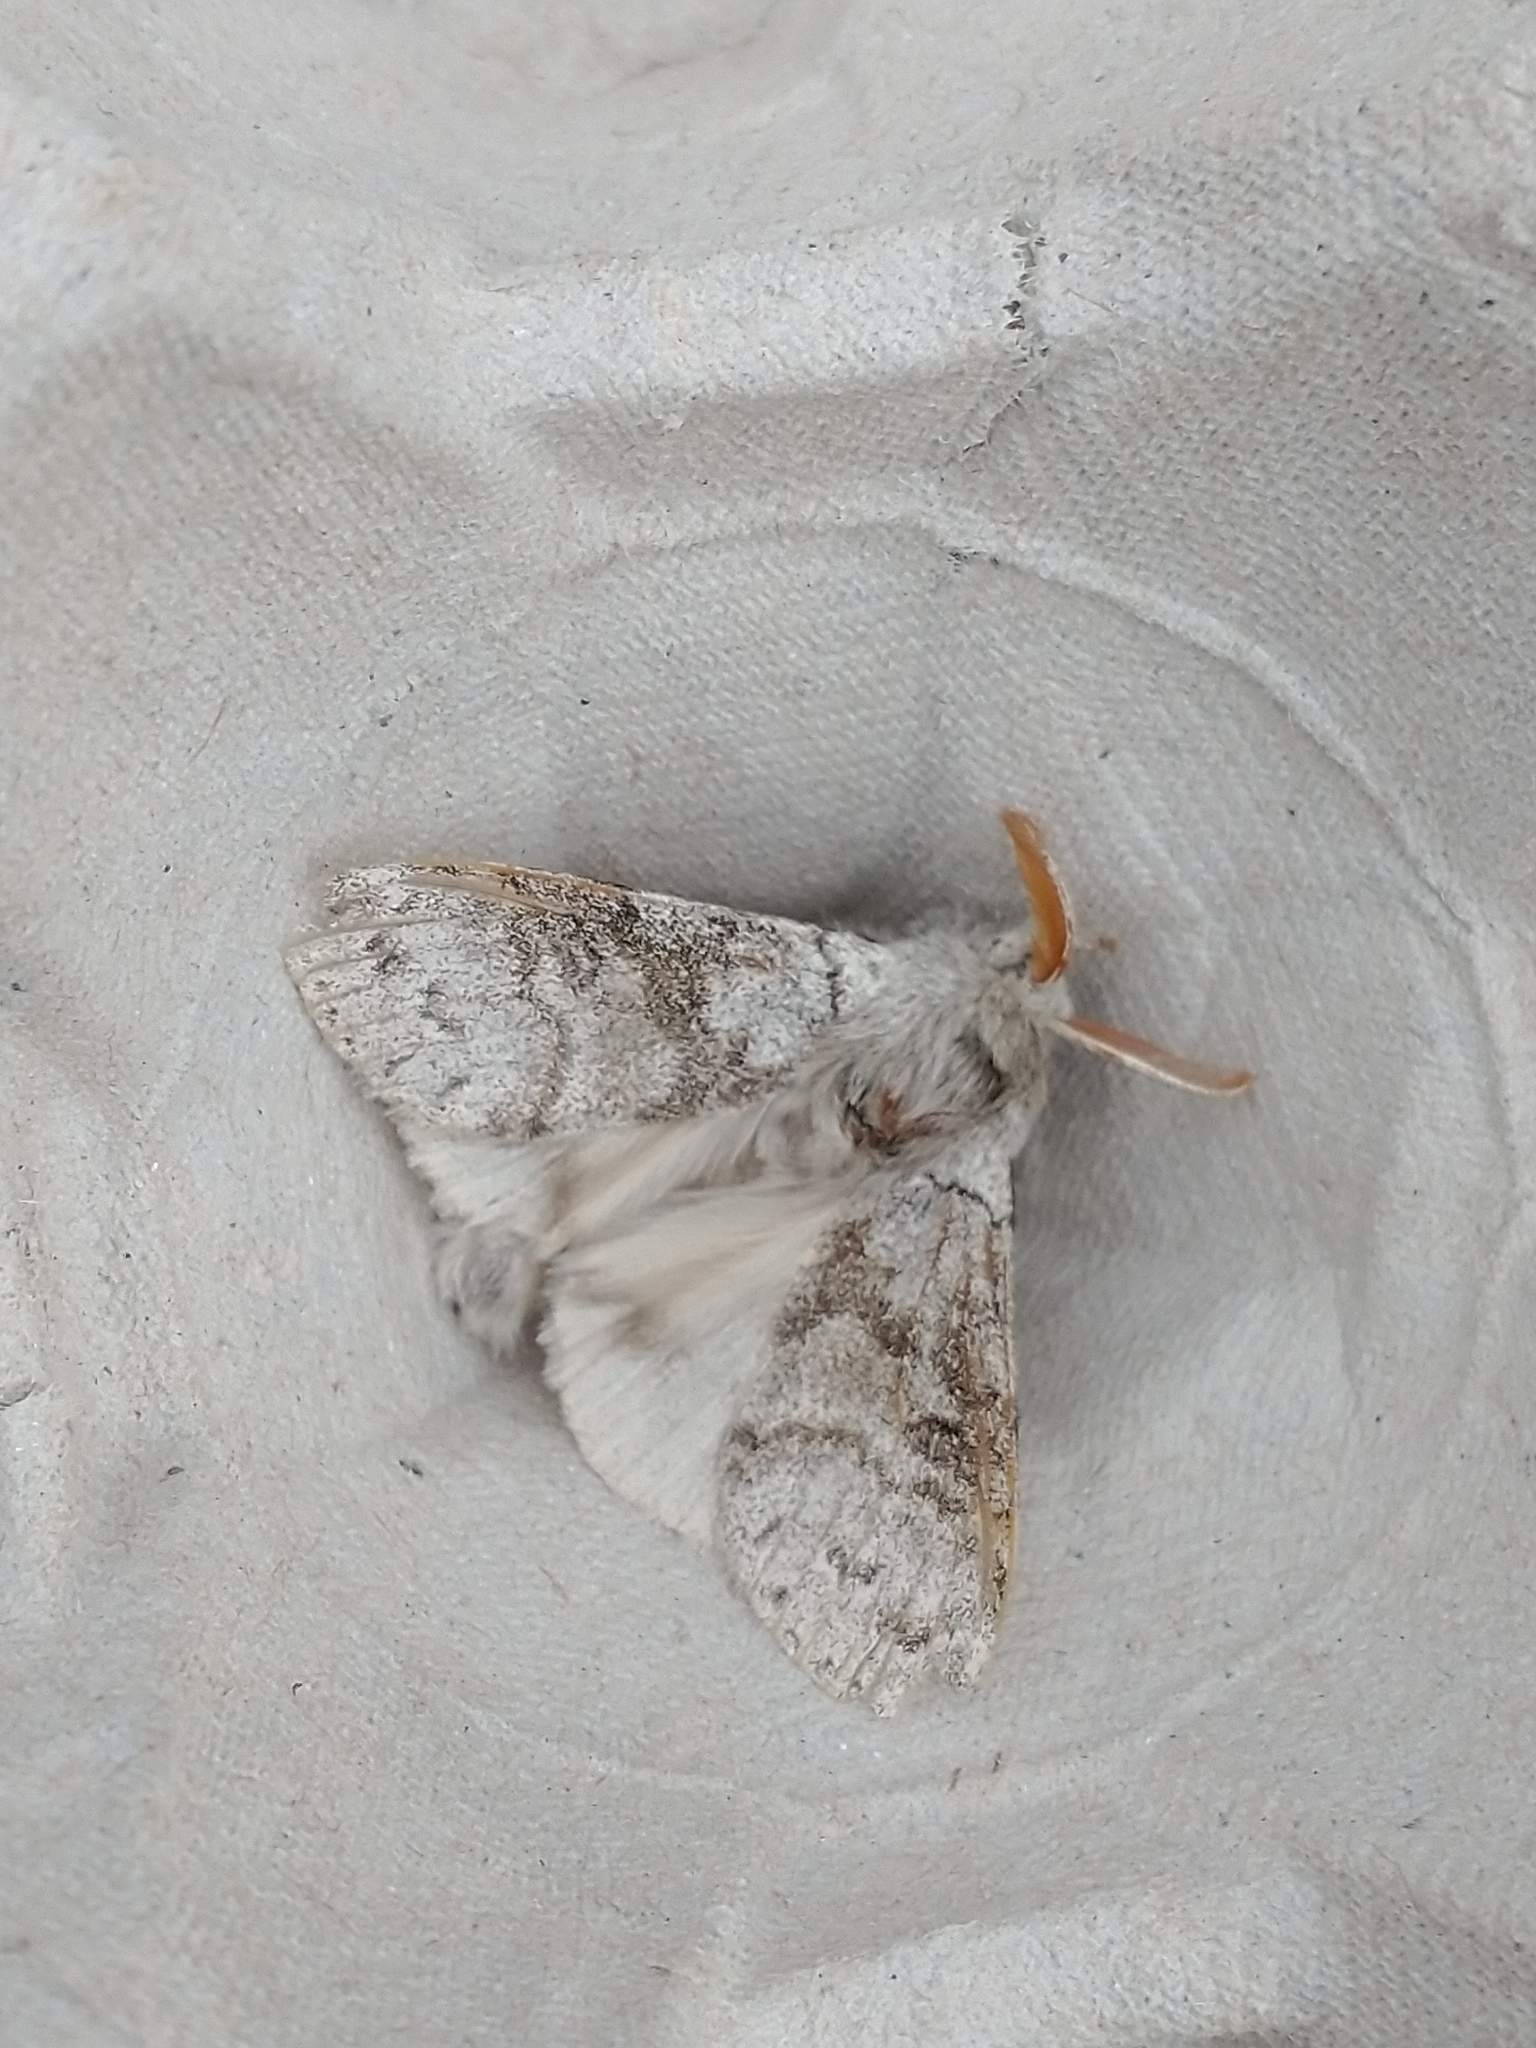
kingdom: Animalia
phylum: Arthropoda
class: Insecta
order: Lepidoptera
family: Erebidae
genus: Calliteara
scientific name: Calliteara pudibunda
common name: Pale tussock
